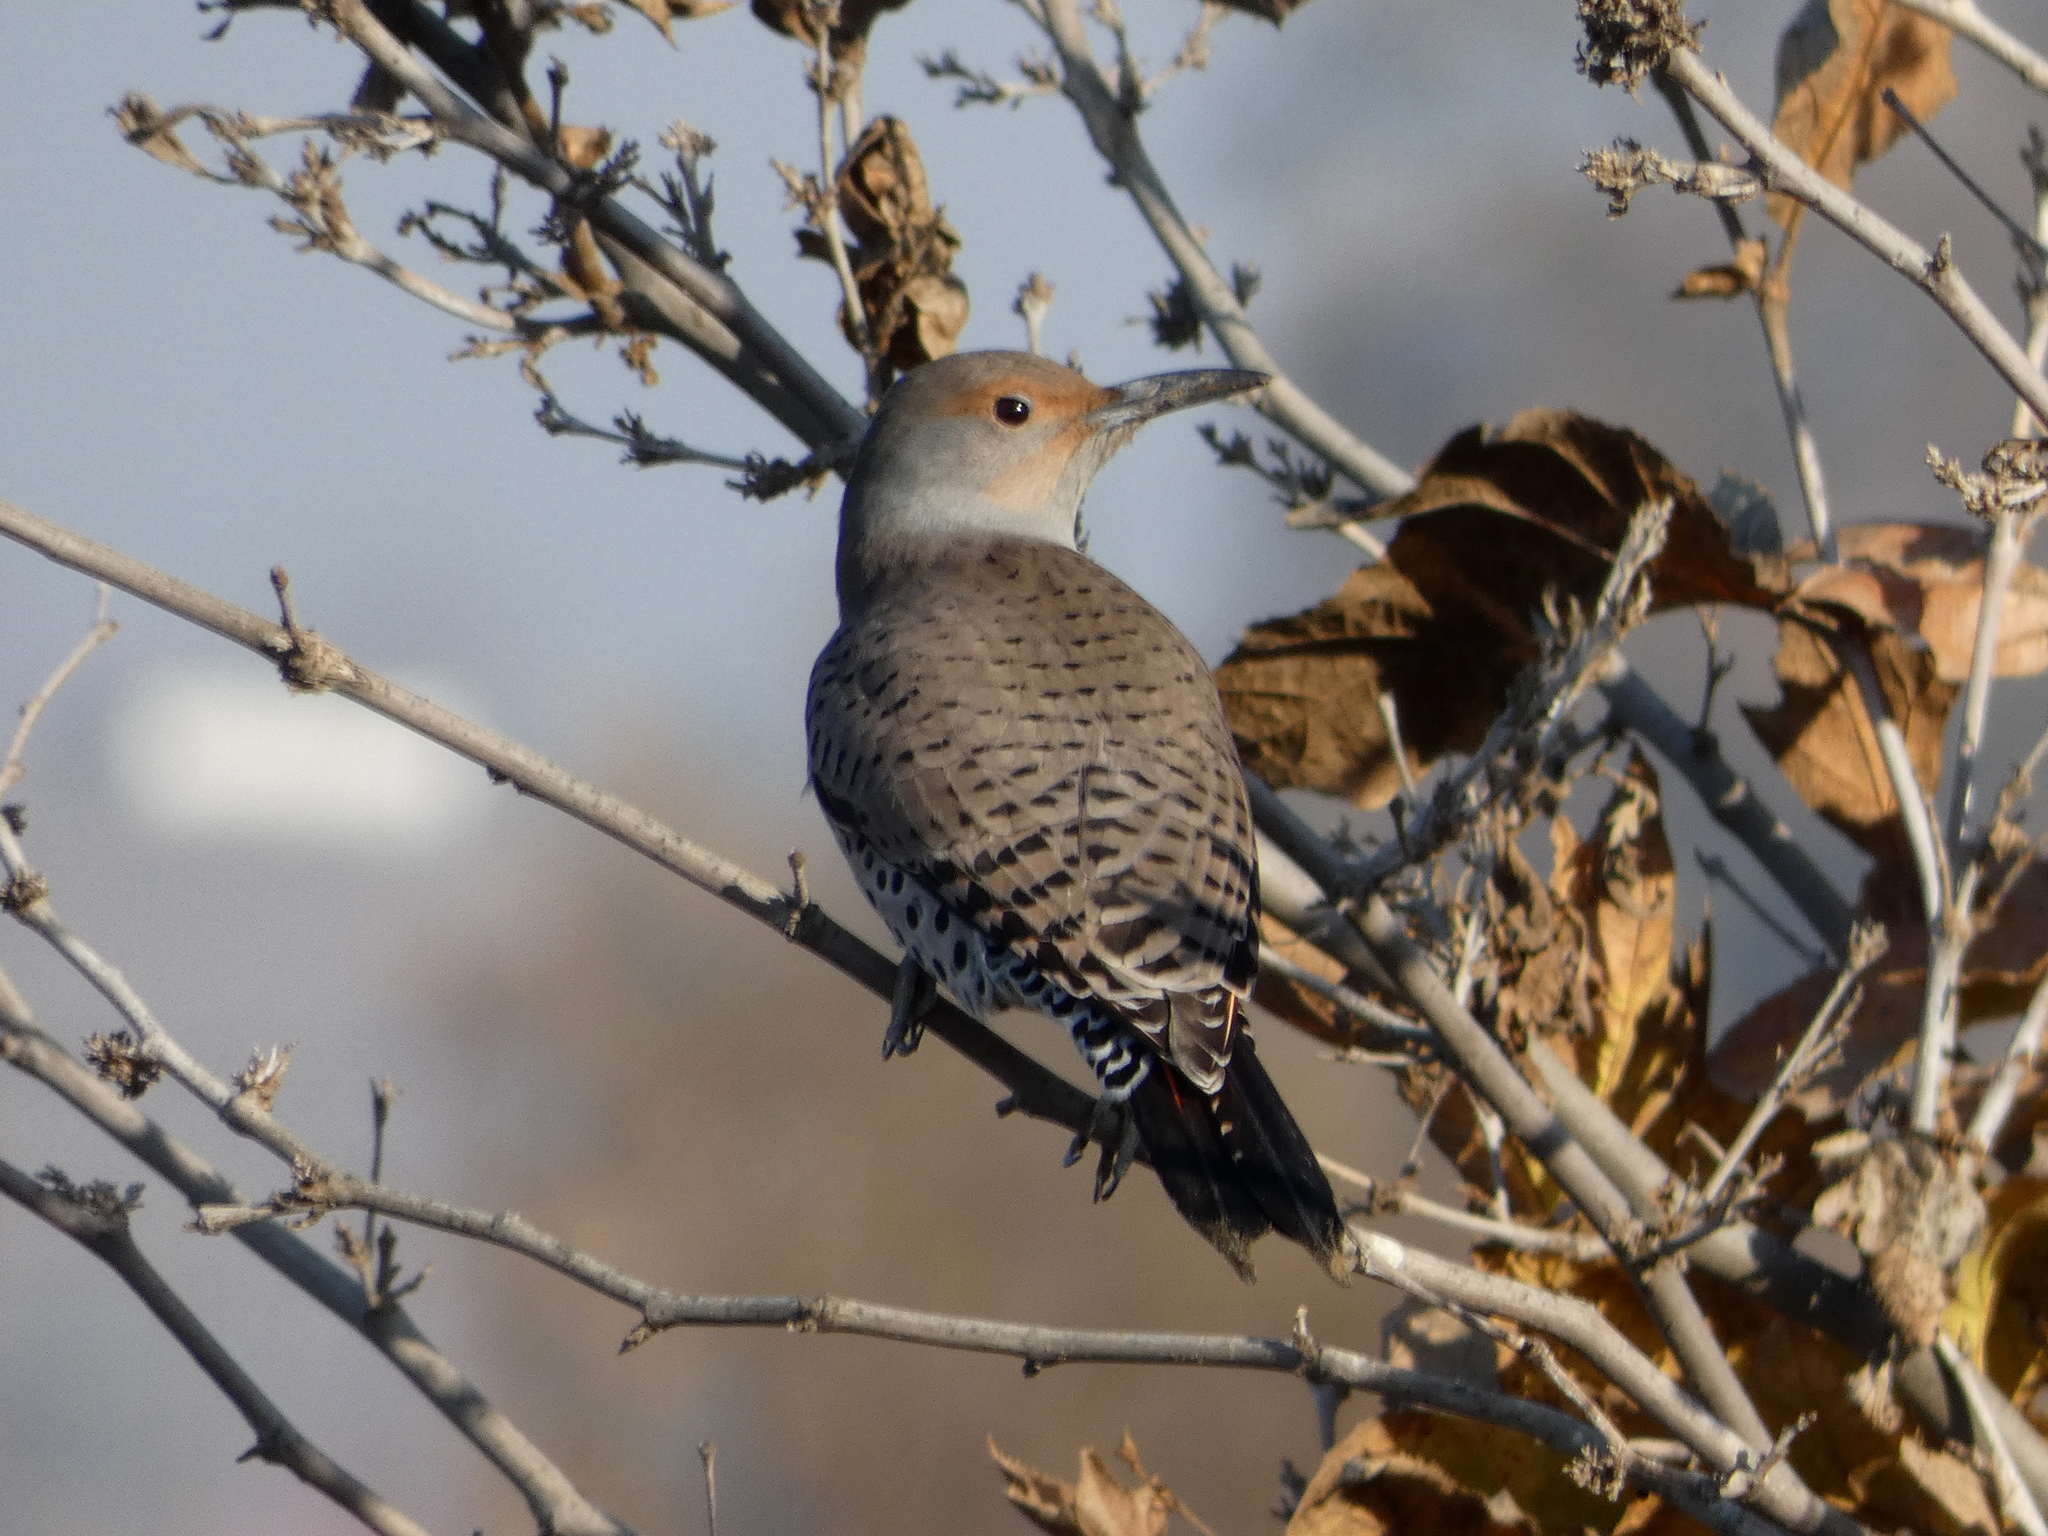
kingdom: Animalia
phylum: Chordata
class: Aves
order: Piciformes
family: Picidae
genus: Colaptes
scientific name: Colaptes auratus
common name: Northern flicker
